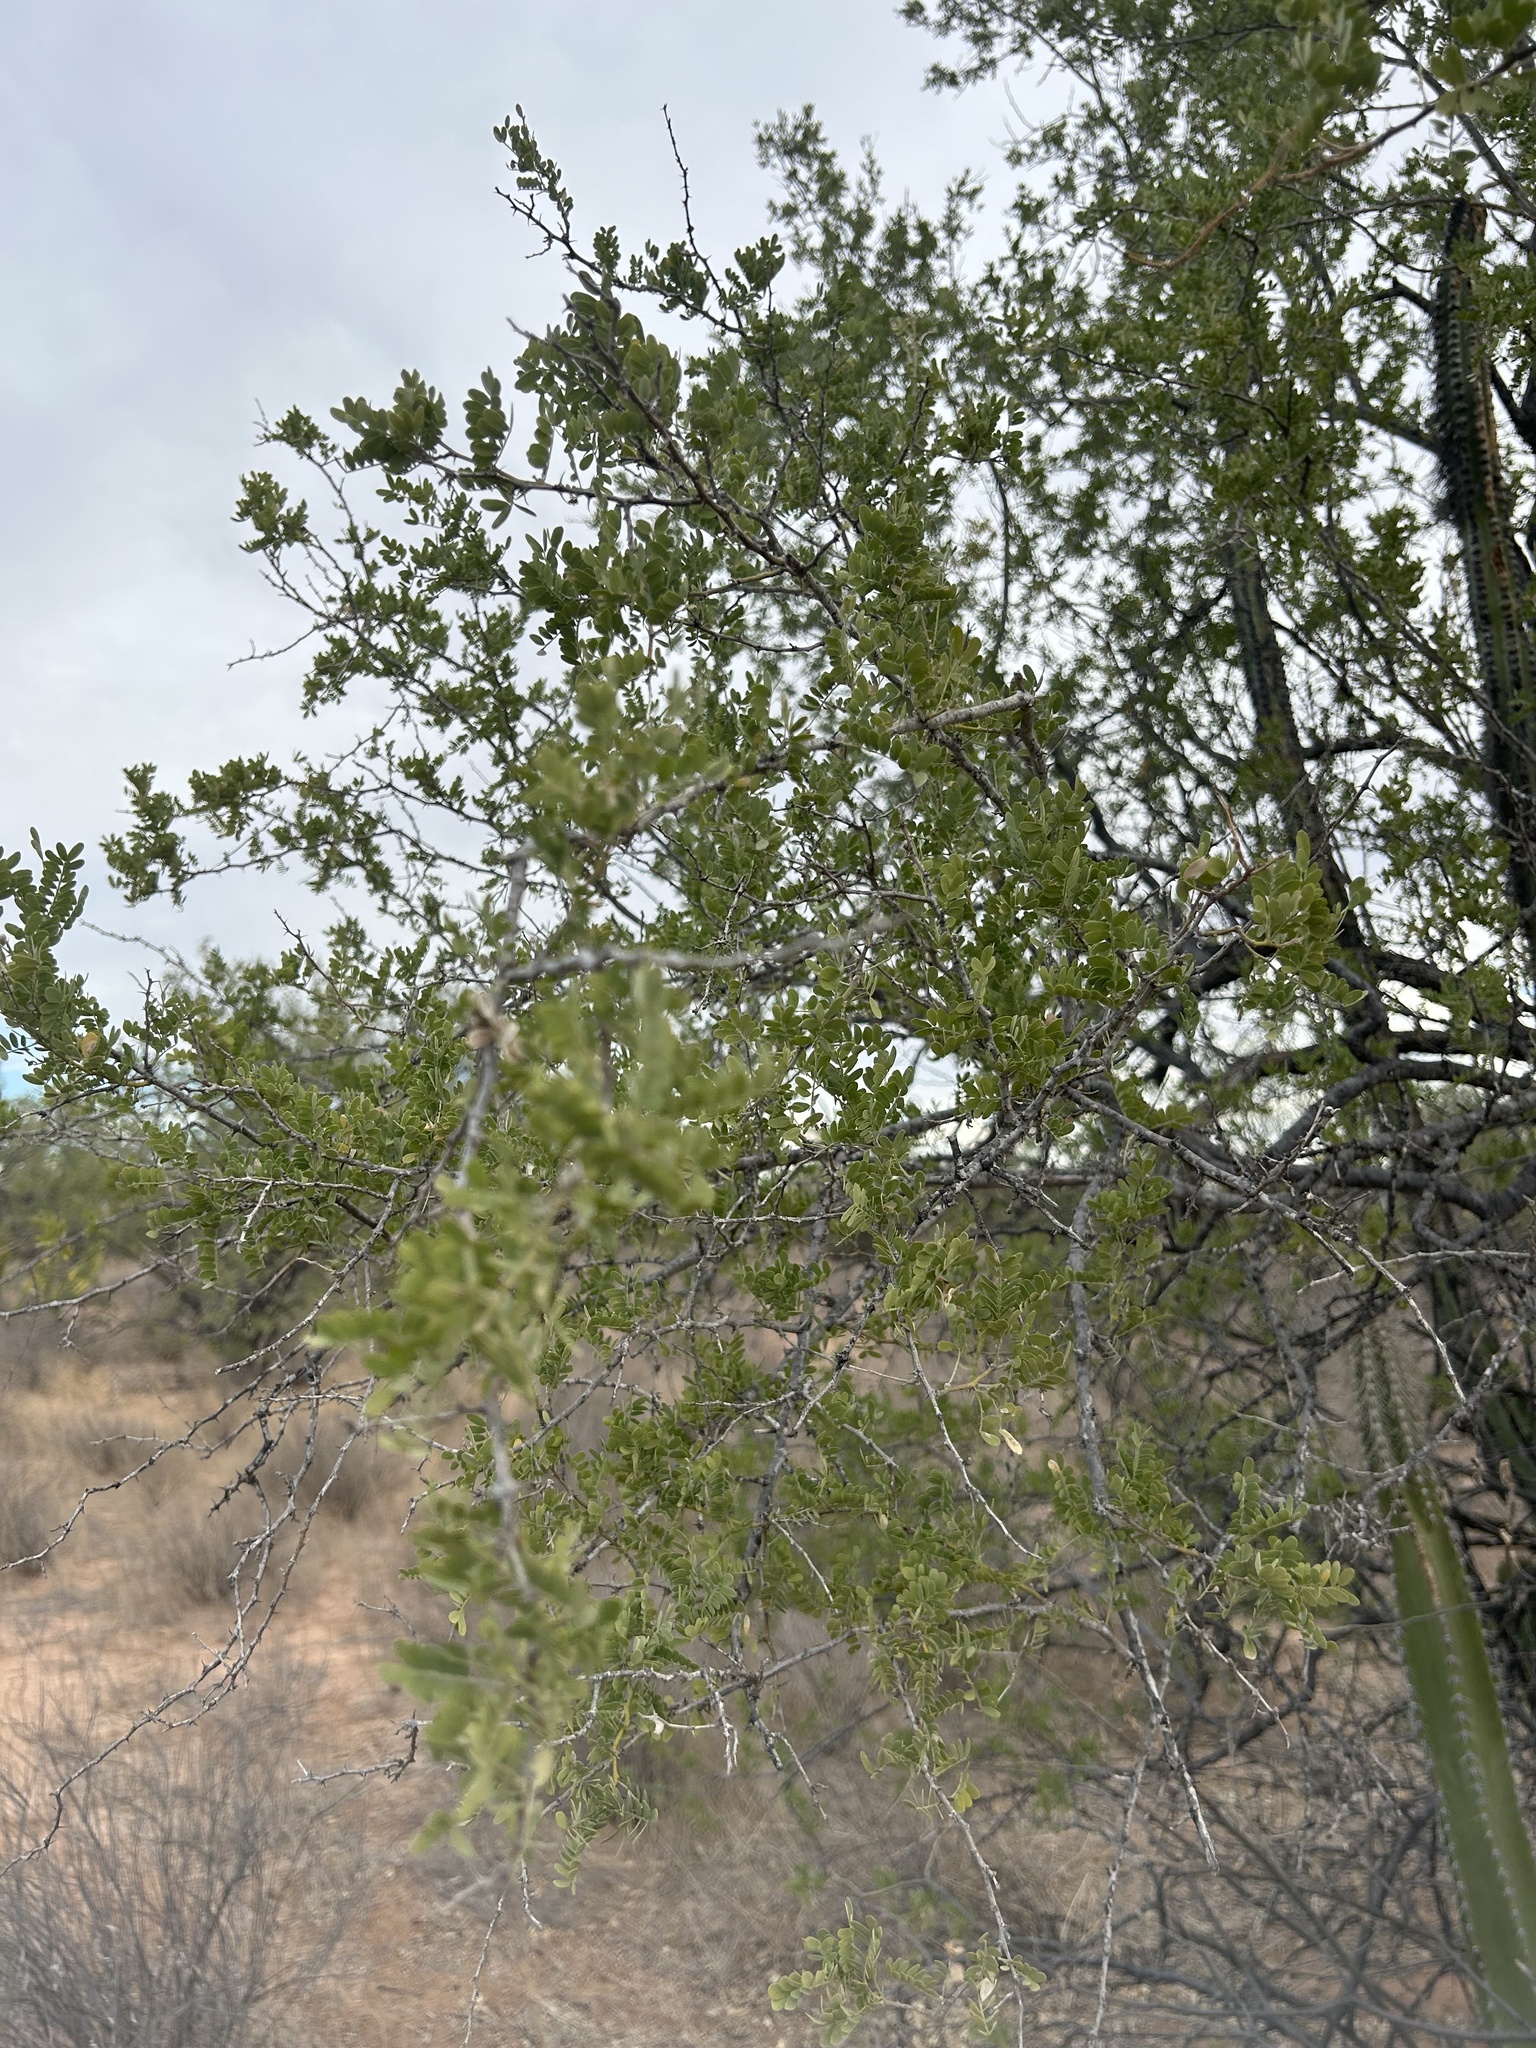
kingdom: Plantae
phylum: Tracheophyta
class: Magnoliopsida
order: Fabales
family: Fabaceae
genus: Olneya
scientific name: Olneya tesota
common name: Desert ironwood
